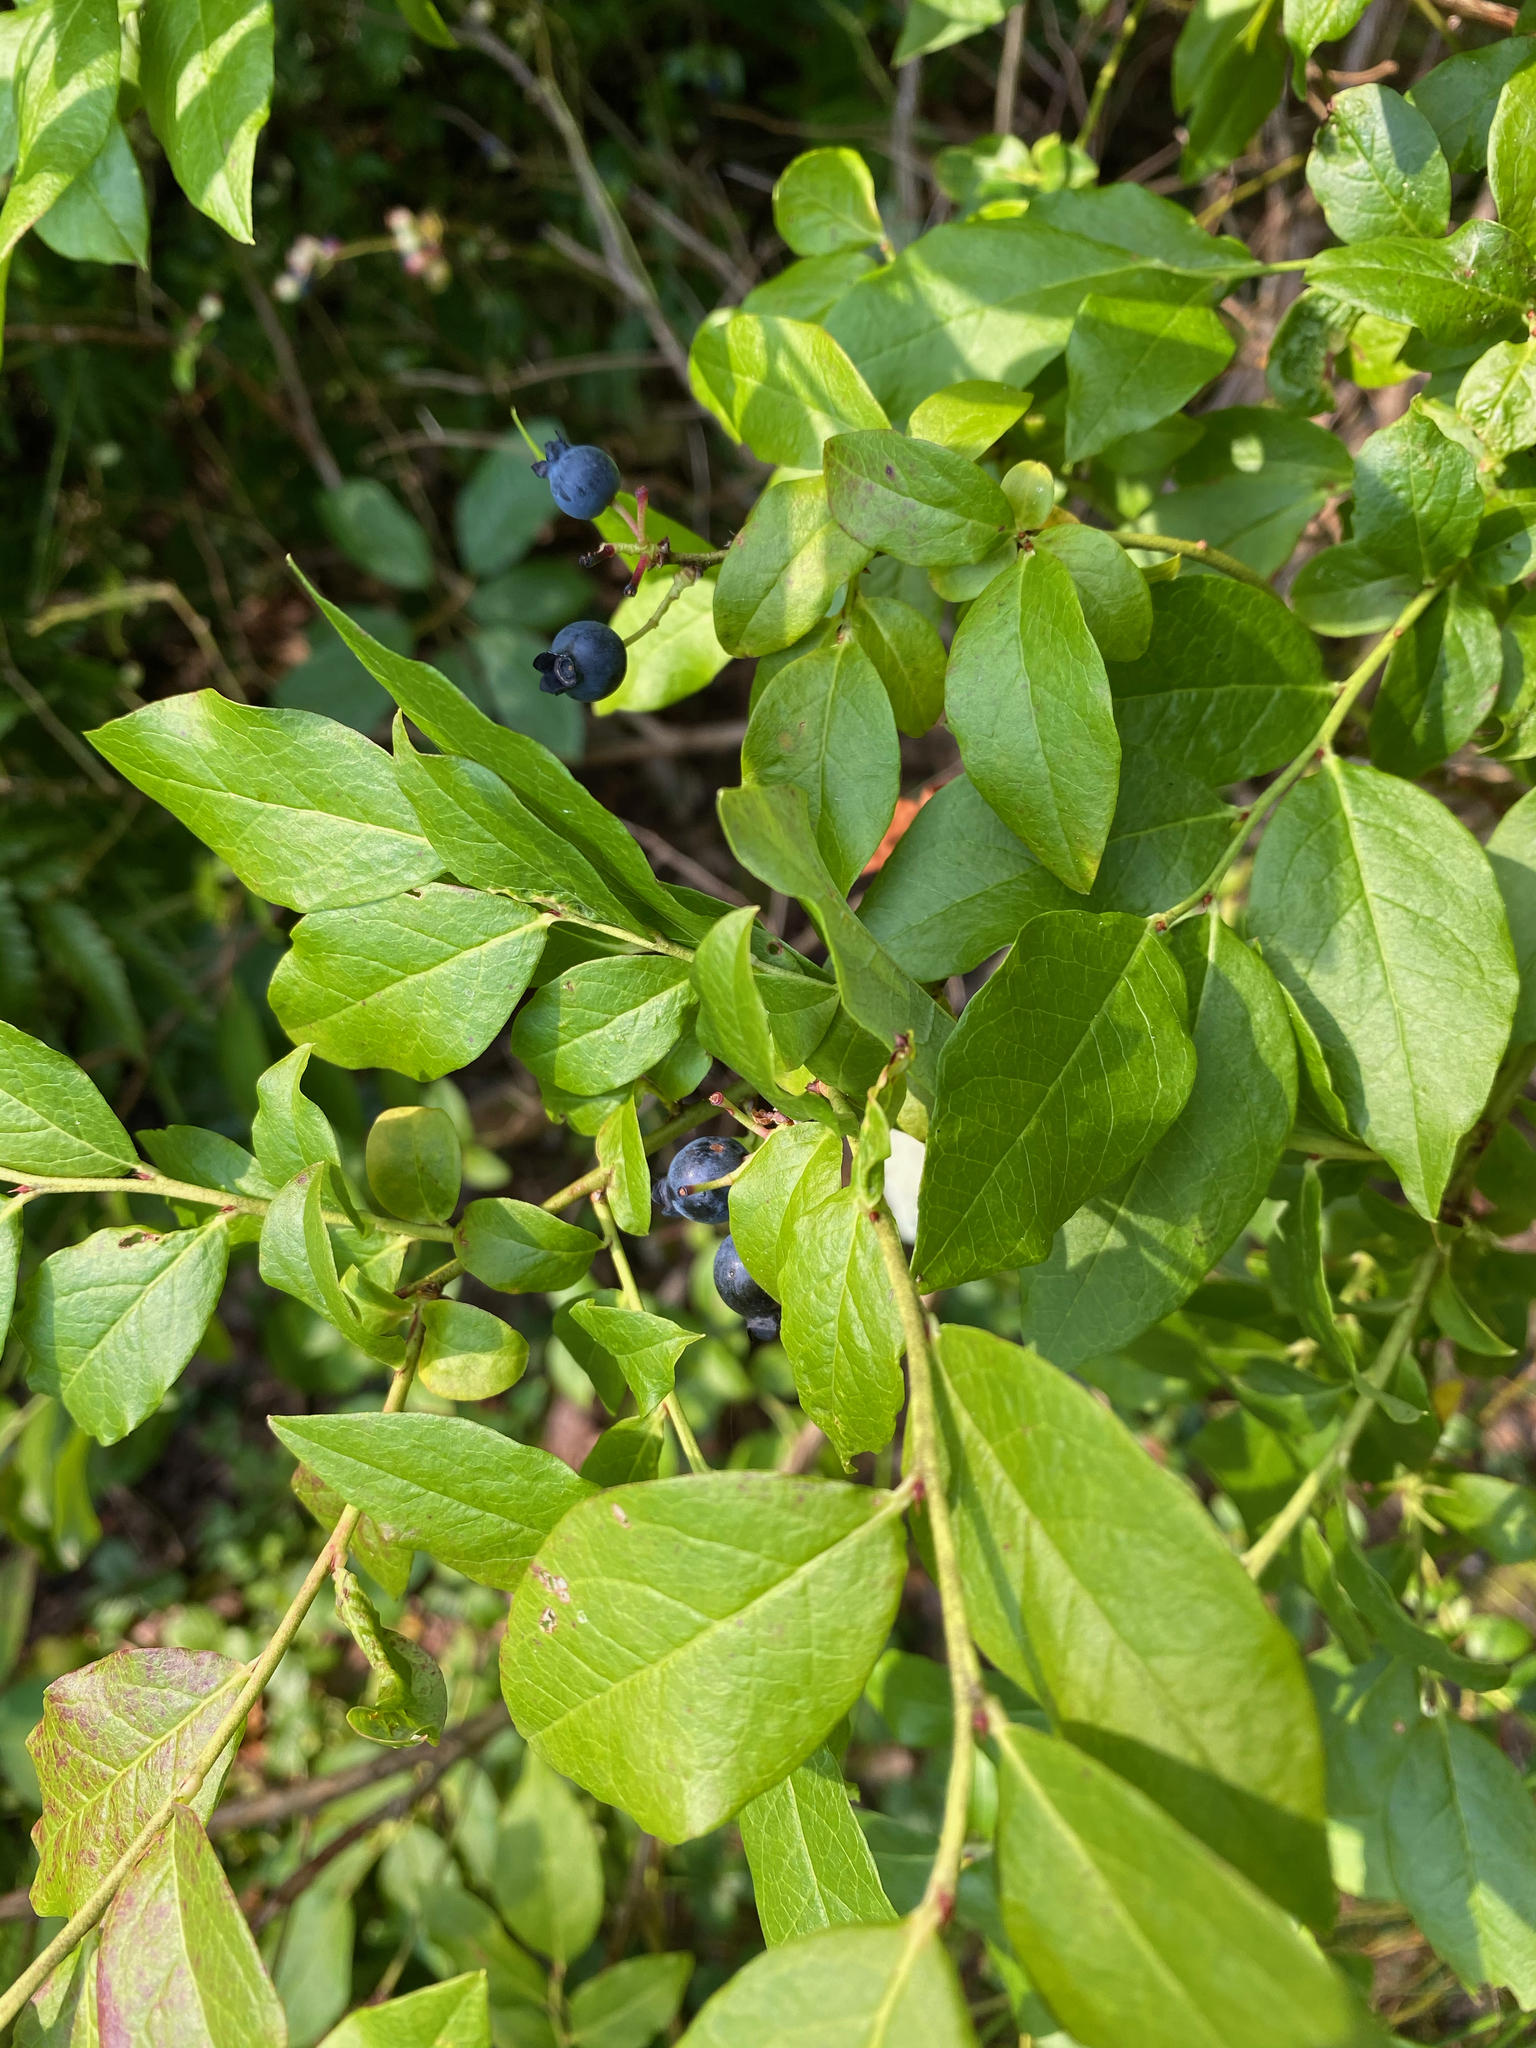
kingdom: Plantae
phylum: Tracheophyta
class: Magnoliopsida
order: Ericales
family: Ericaceae
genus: Vaccinium
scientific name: Vaccinium corymbosum
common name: Blueberry
